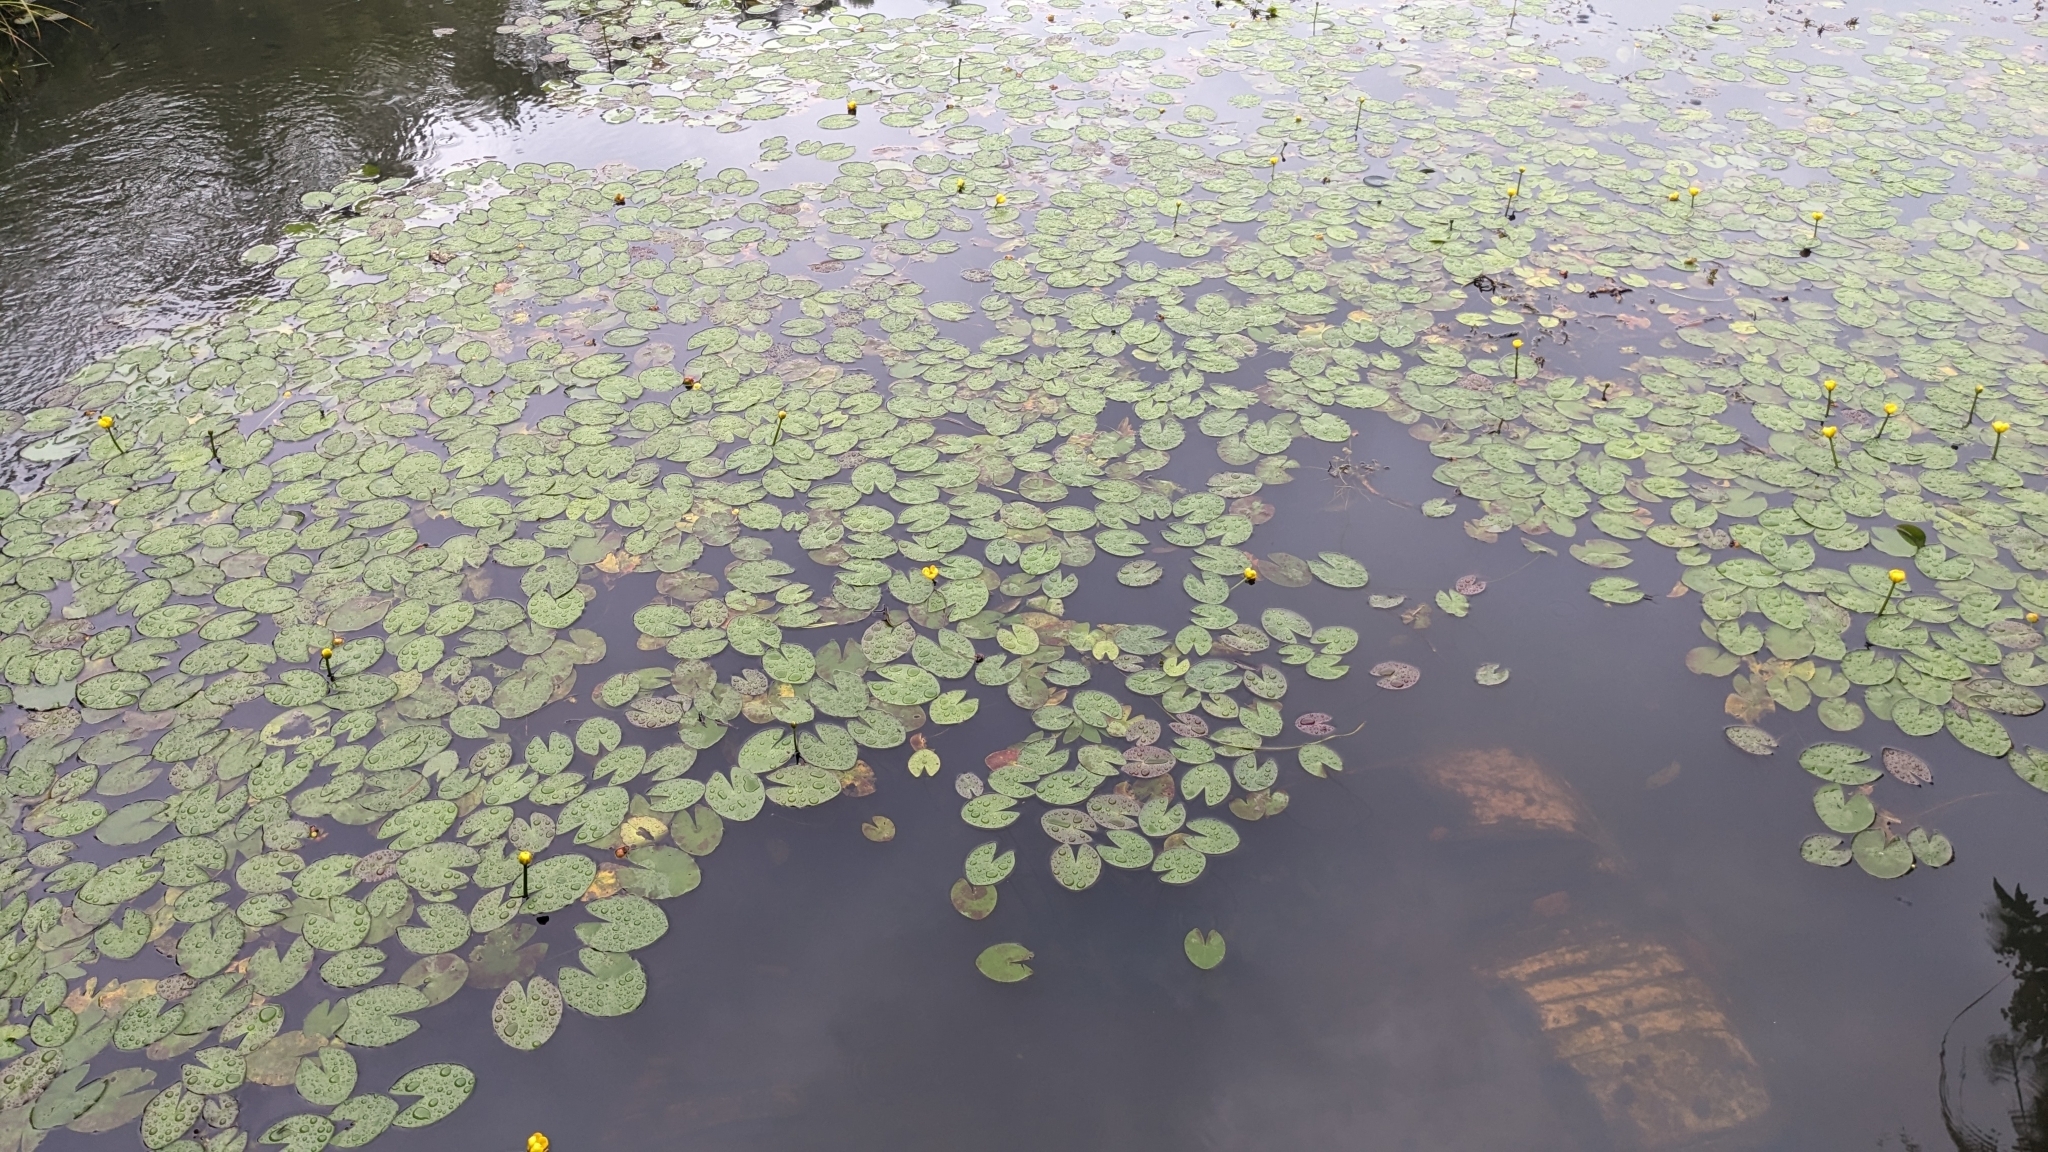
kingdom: Plantae
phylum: Tracheophyta
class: Magnoliopsida
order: Nymphaeales
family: Nymphaeaceae
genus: Nuphar
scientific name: Nuphar pumila
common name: Least water-lily
